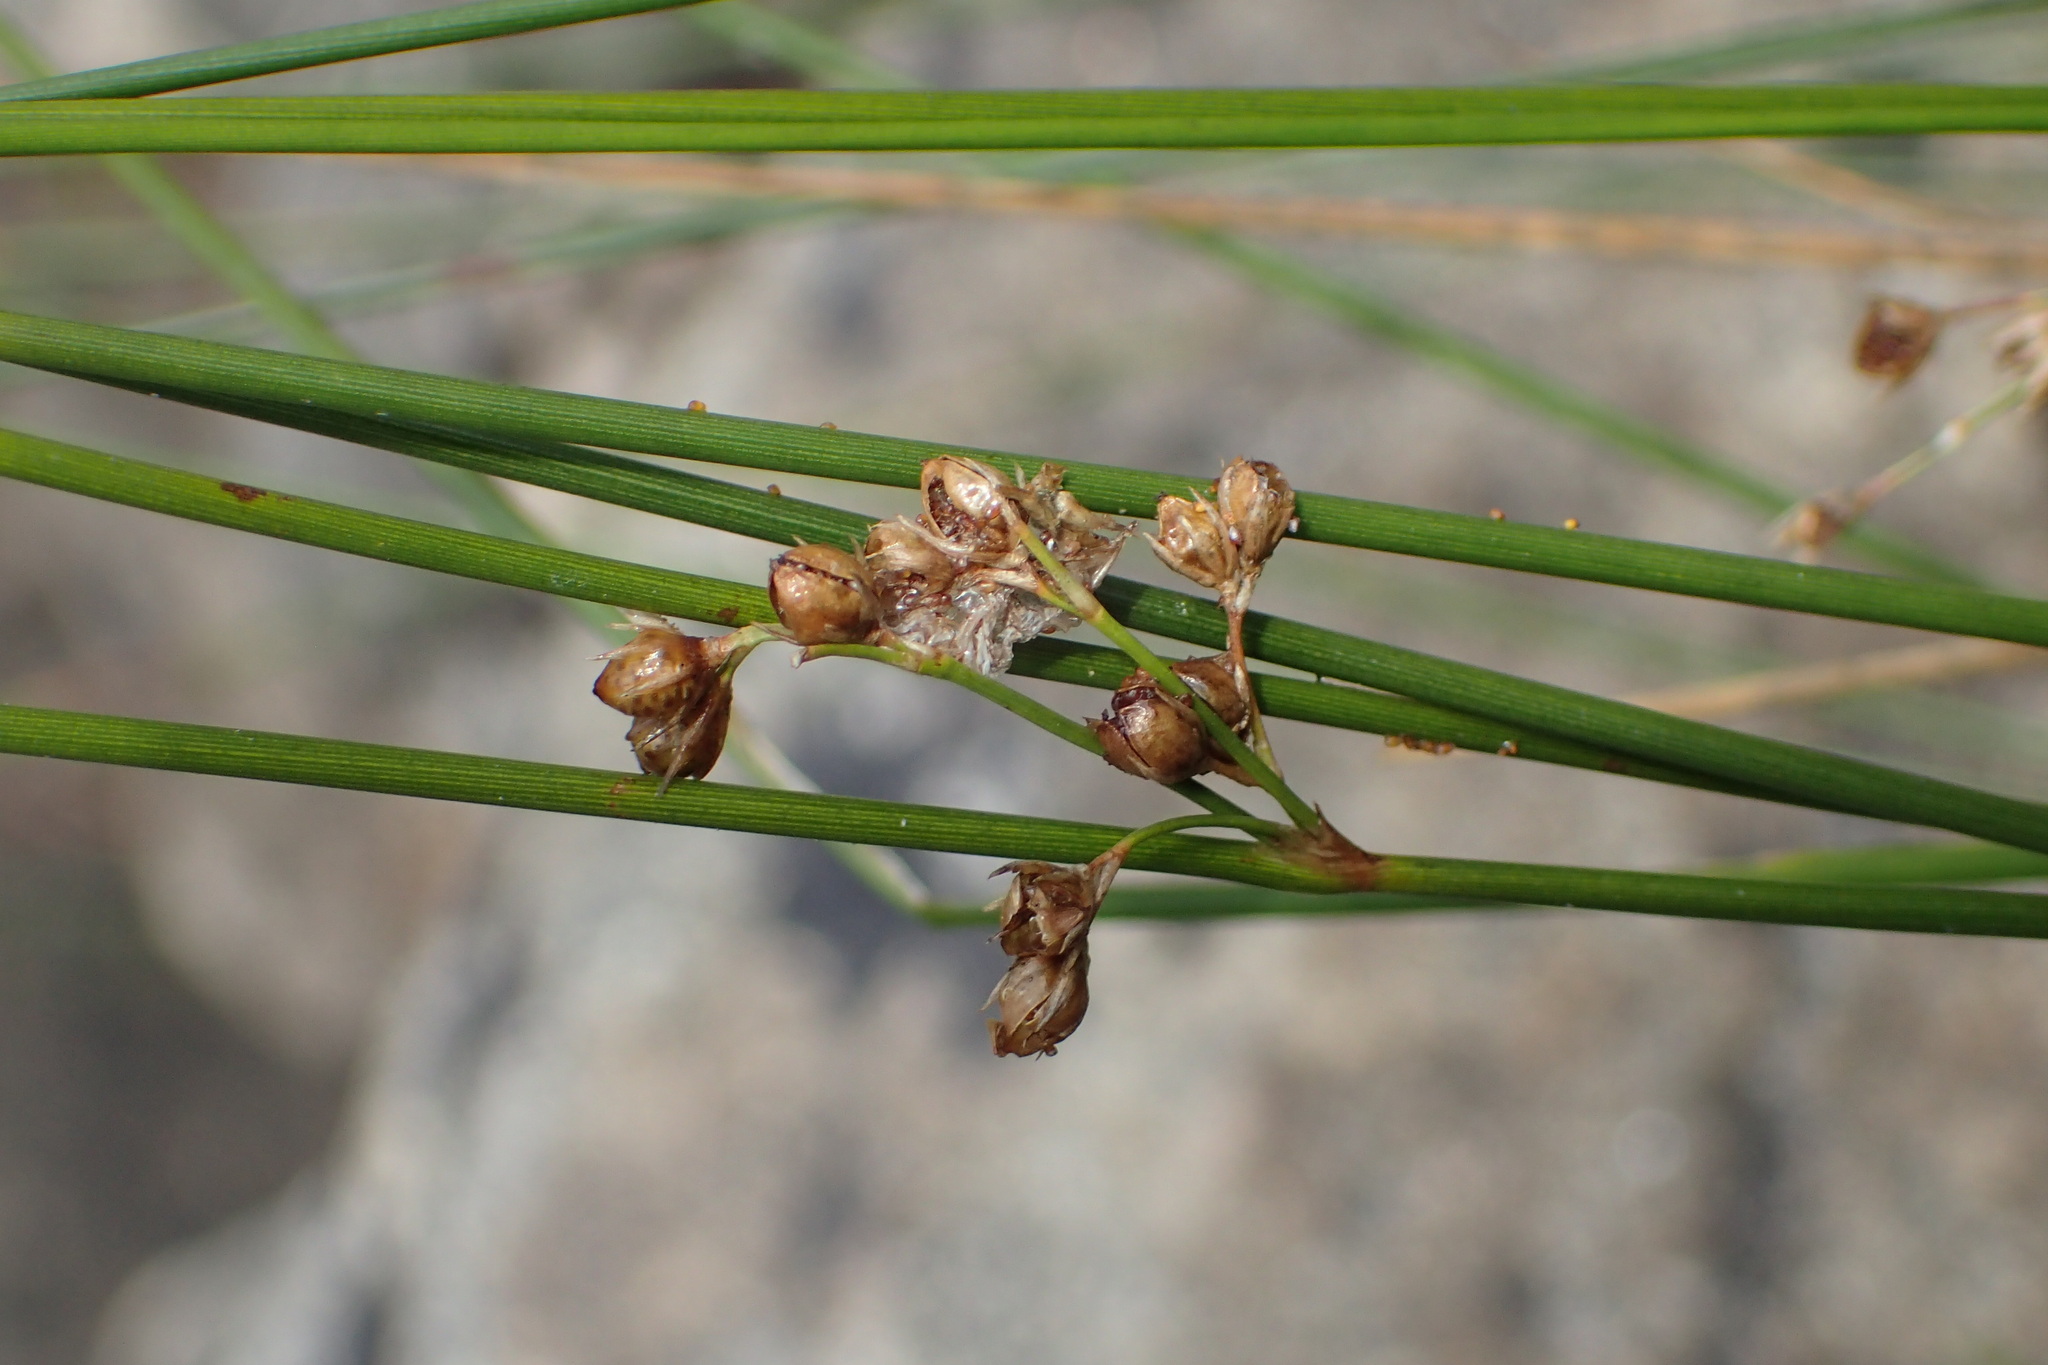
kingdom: Plantae
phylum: Tracheophyta
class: Liliopsida
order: Poales
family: Juncaceae
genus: Juncus
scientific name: Juncus filiformis
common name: Thread rush
